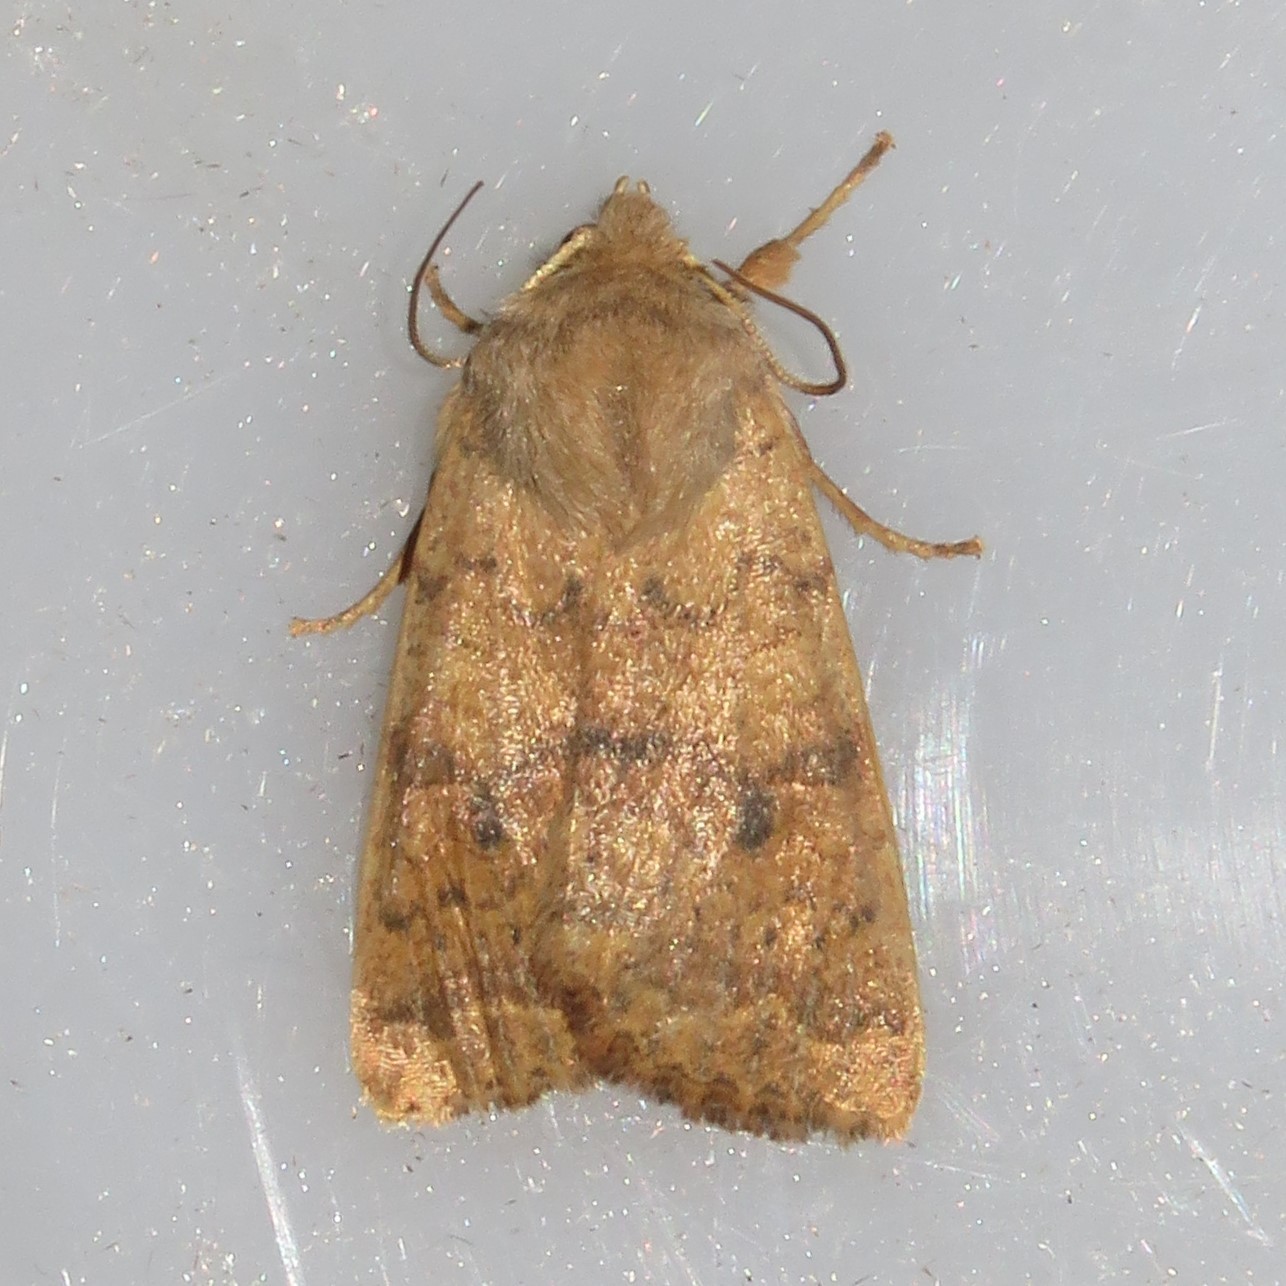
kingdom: Animalia
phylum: Arthropoda
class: Insecta
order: Lepidoptera
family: Noctuidae
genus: Agrochola
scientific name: Agrochola bicolorago
